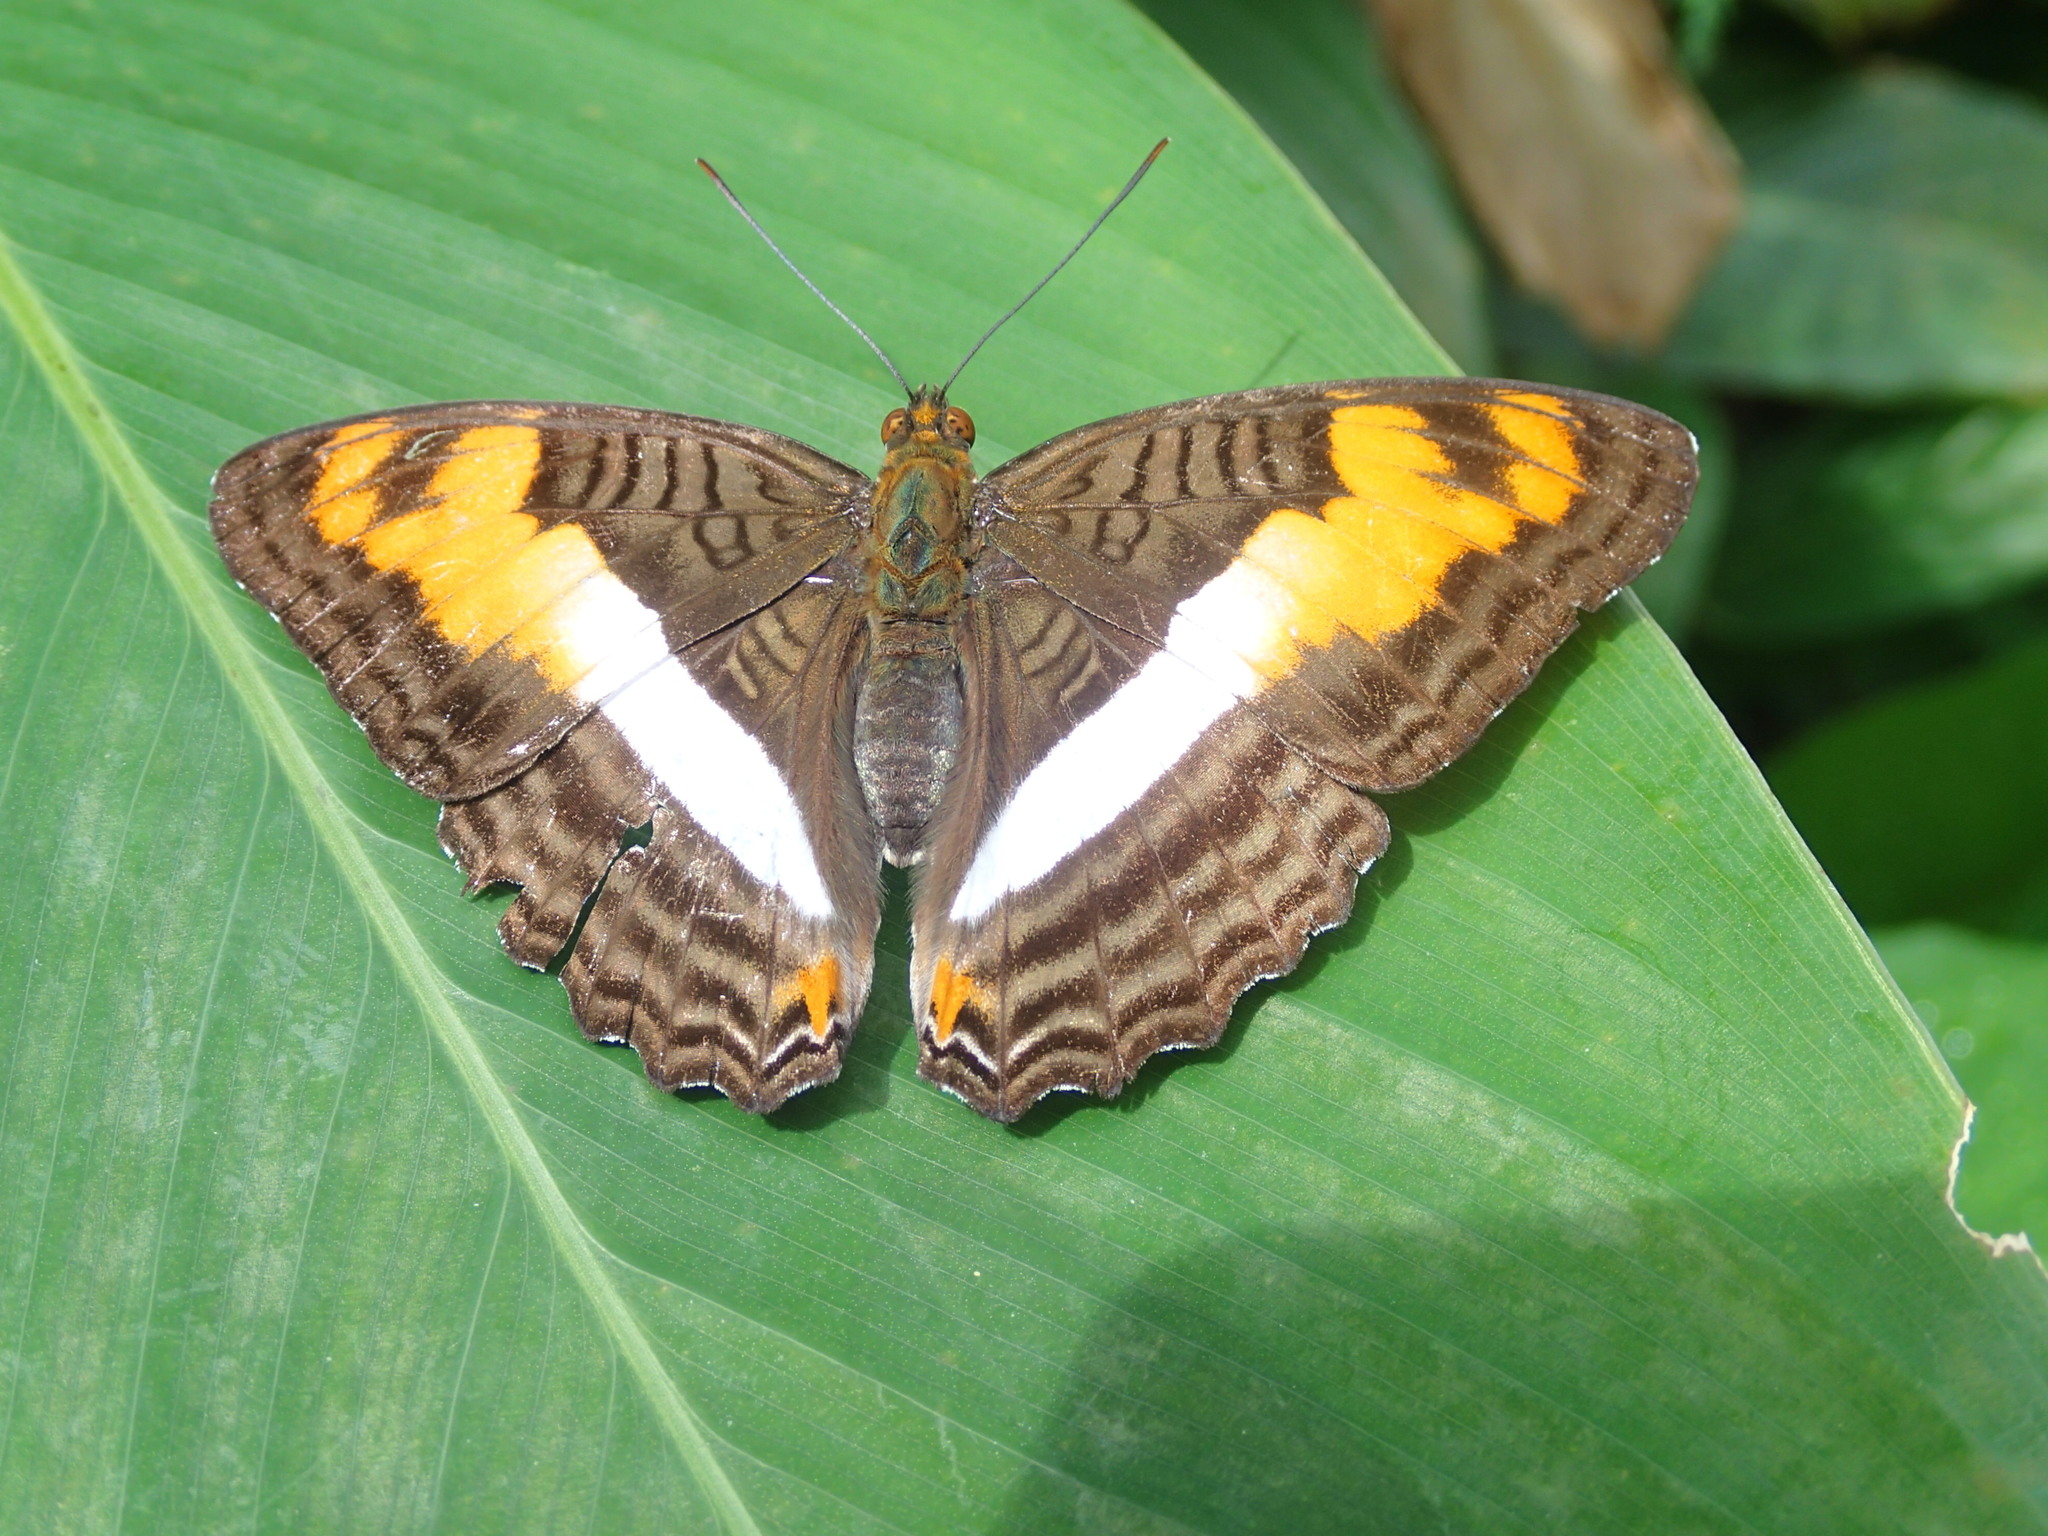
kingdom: Animalia
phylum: Arthropoda
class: Insecta
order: Lepidoptera
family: Nymphalidae
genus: Limenitis
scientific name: Limenitis thesprotia
